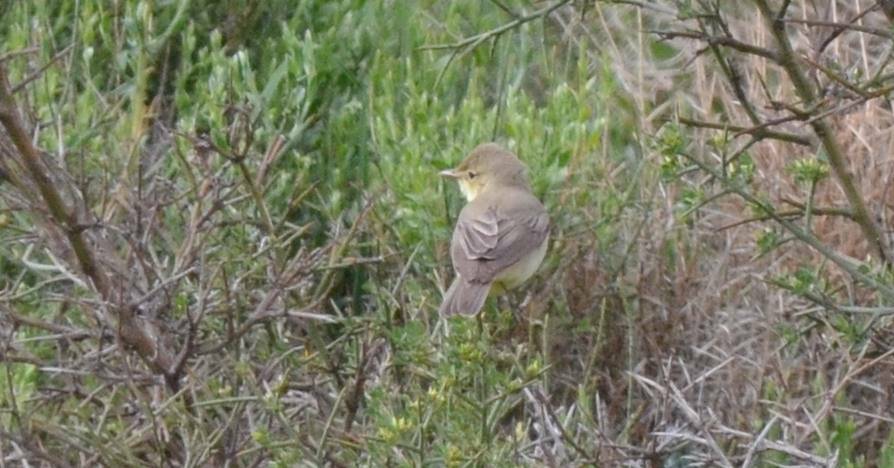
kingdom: Animalia
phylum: Chordata
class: Aves
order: Passeriformes
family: Acrocephalidae
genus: Hippolais
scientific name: Hippolais polyglotta
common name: Melodious warbler
